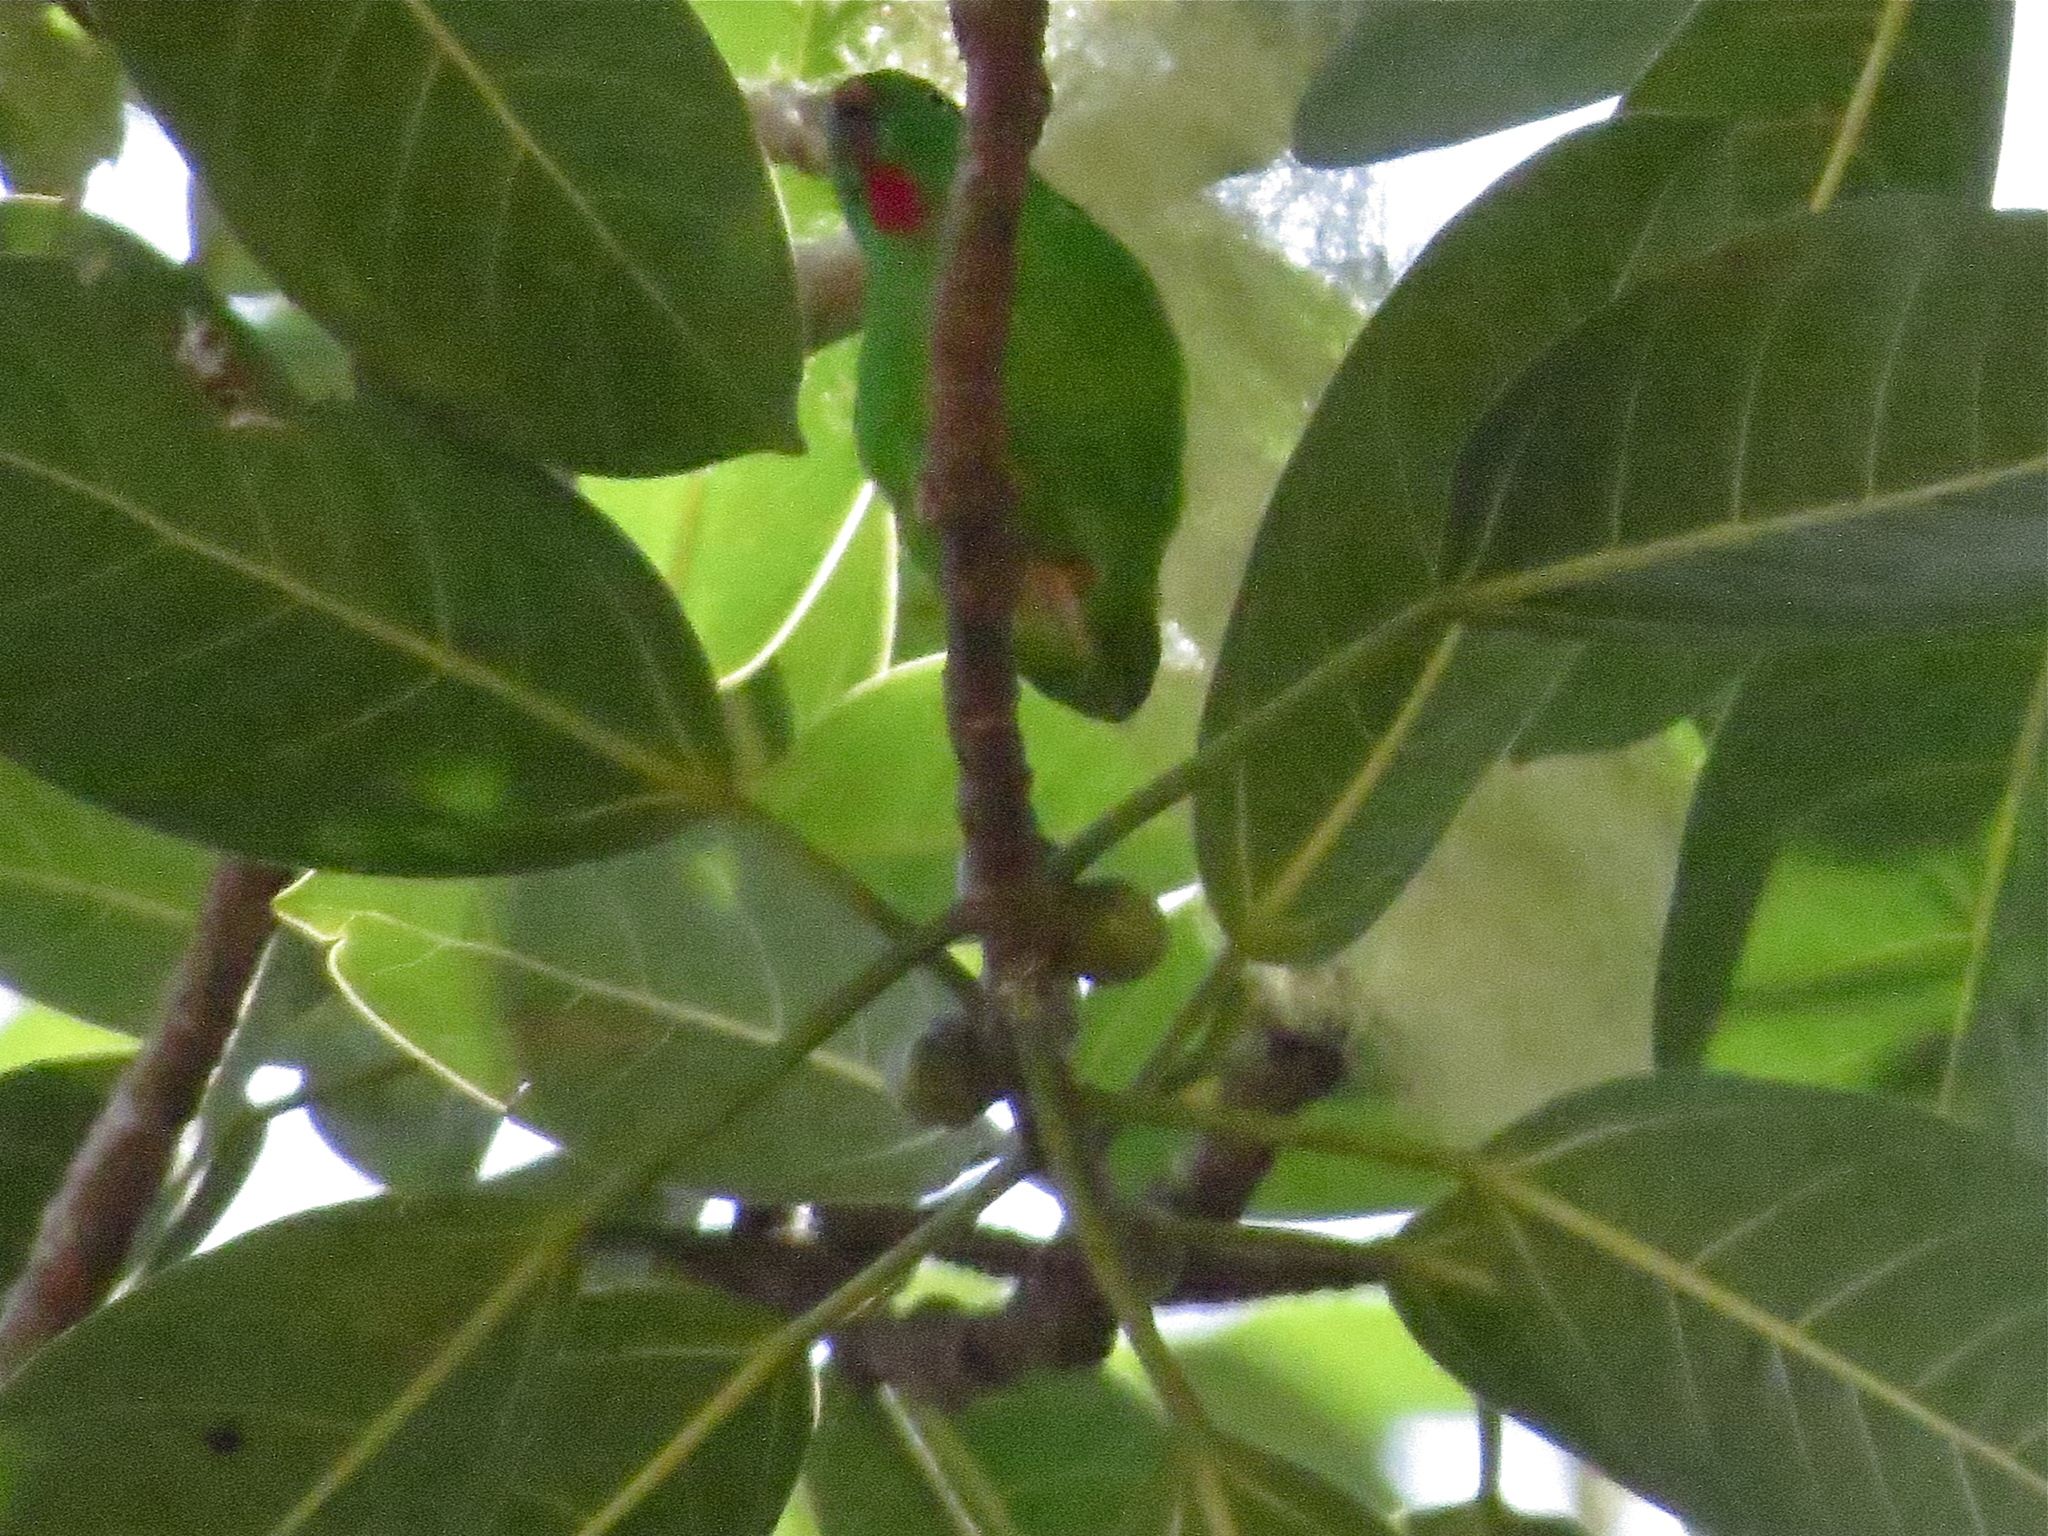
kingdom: Animalia
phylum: Chordata
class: Aves
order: Psittaciformes
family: Psittacidae
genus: Loriculus
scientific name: Loriculus flosculus
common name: Wallace's hanging parrot
